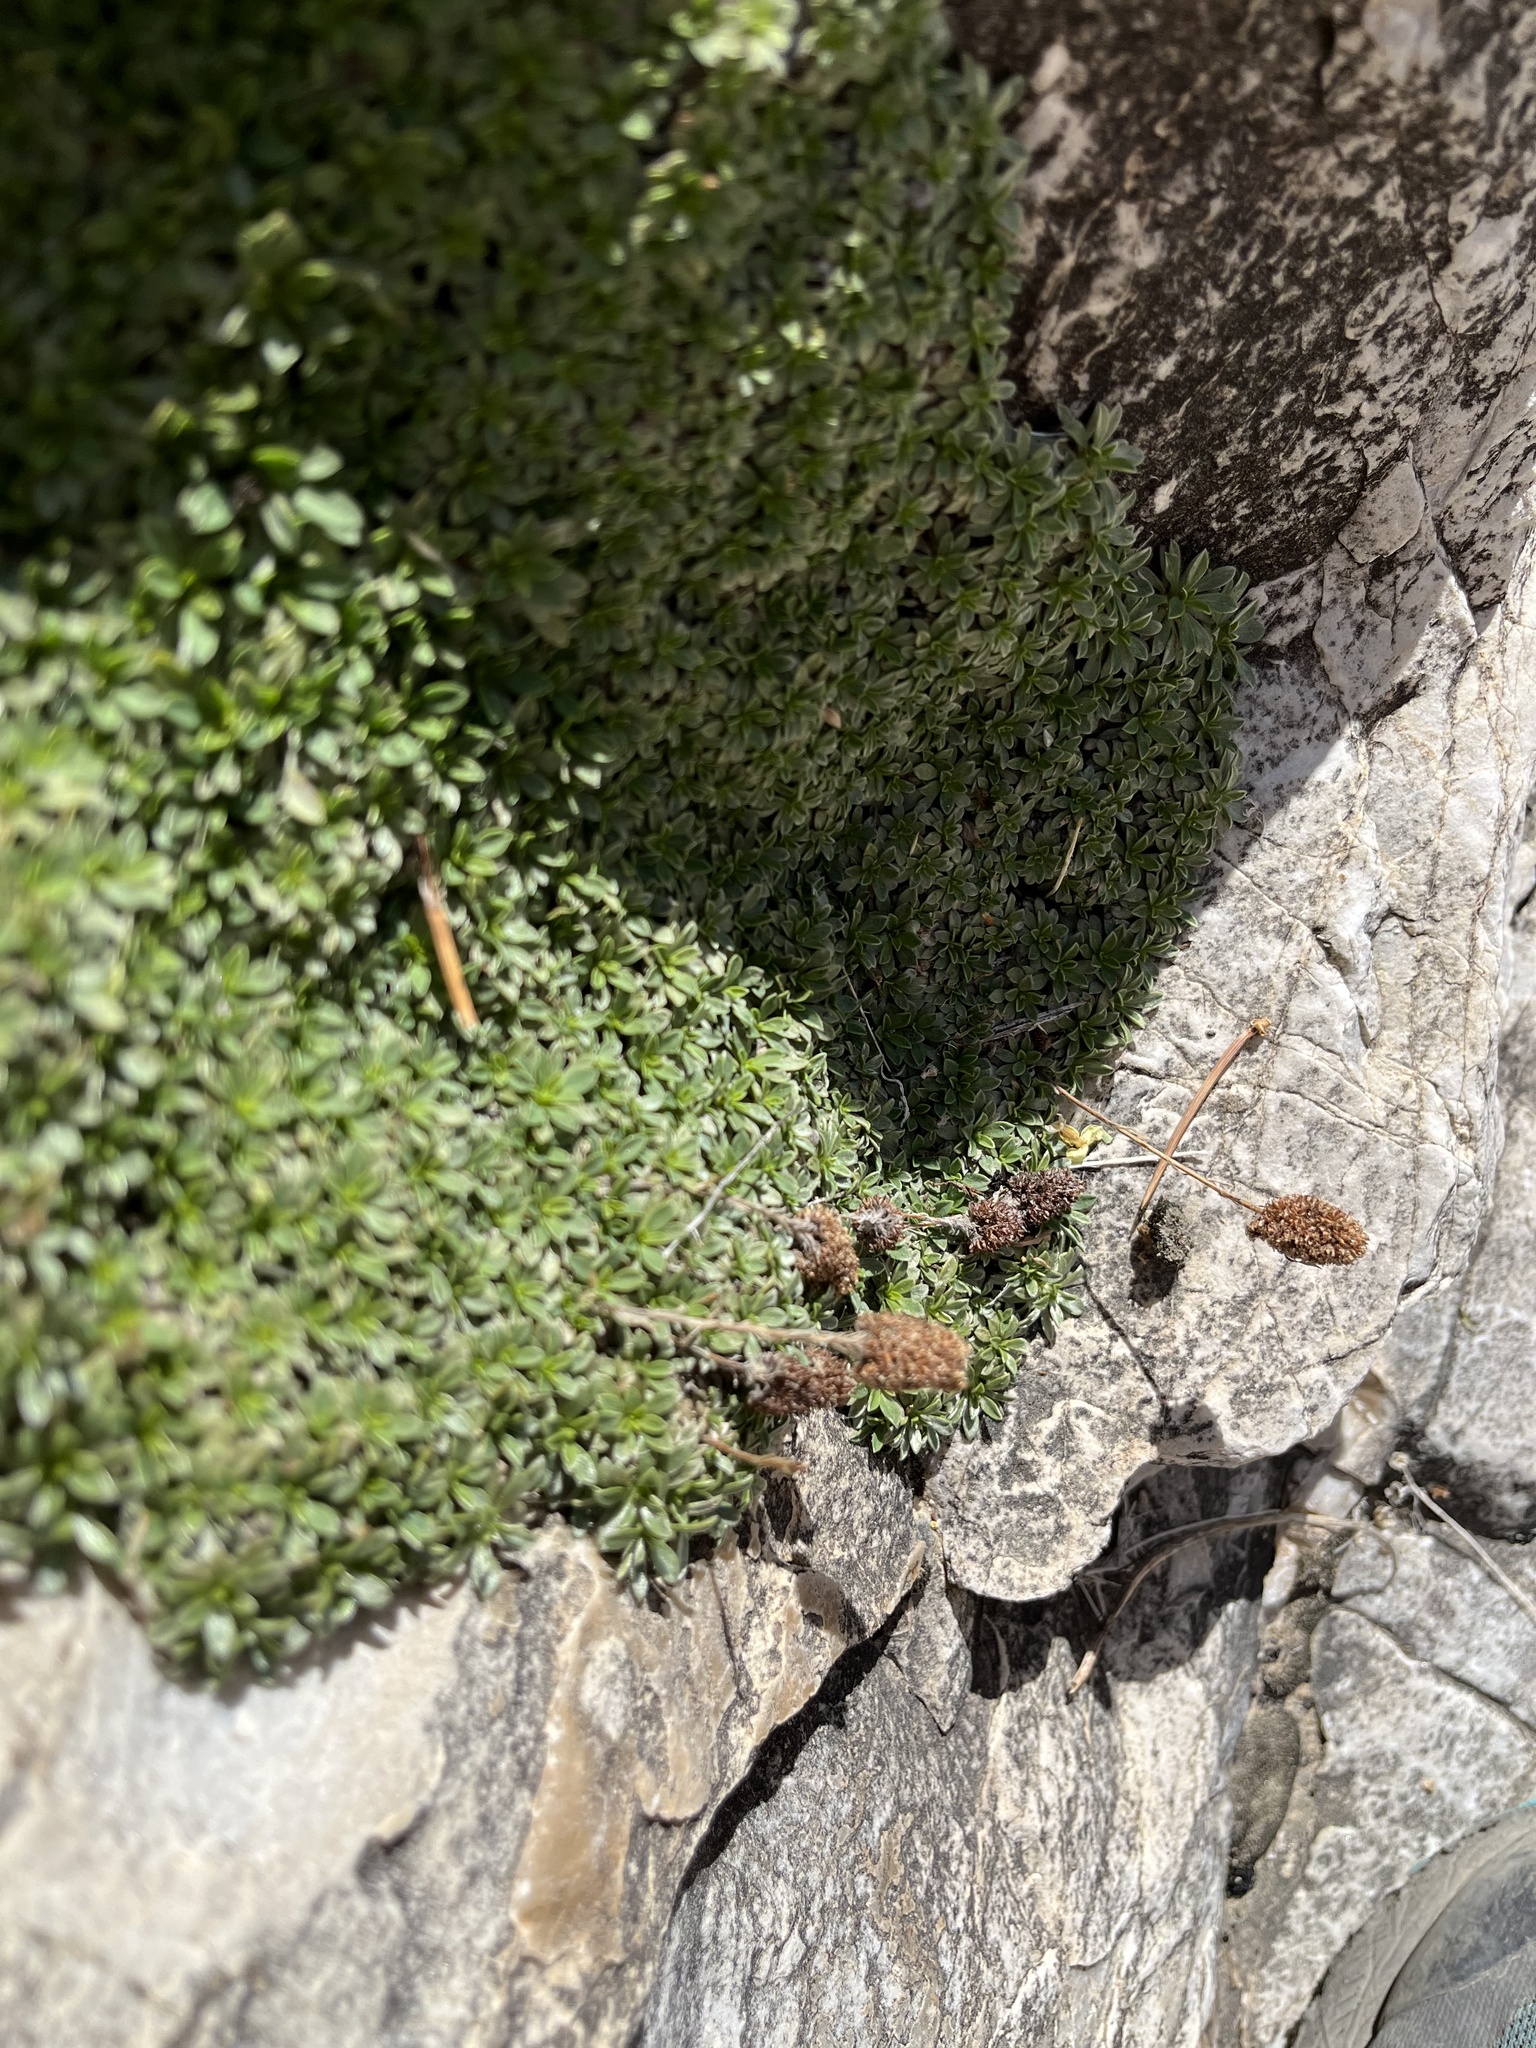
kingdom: Plantae
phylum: Tracheophyta
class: Magnoliopsida
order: Rosales
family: Rosaceae
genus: Petrophytum
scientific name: Petrophytum caespitosum
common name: Mat rockspirea
